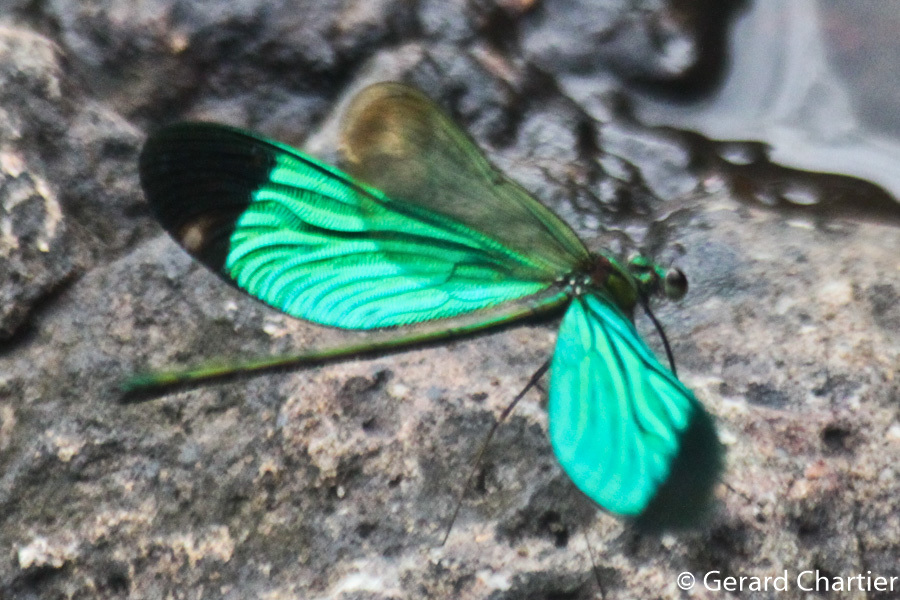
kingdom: Animalia
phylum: Arthropoda
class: Insecta
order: Odonata
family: Calopterygidae
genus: Neurobasis
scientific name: Neurobasis chinensis
